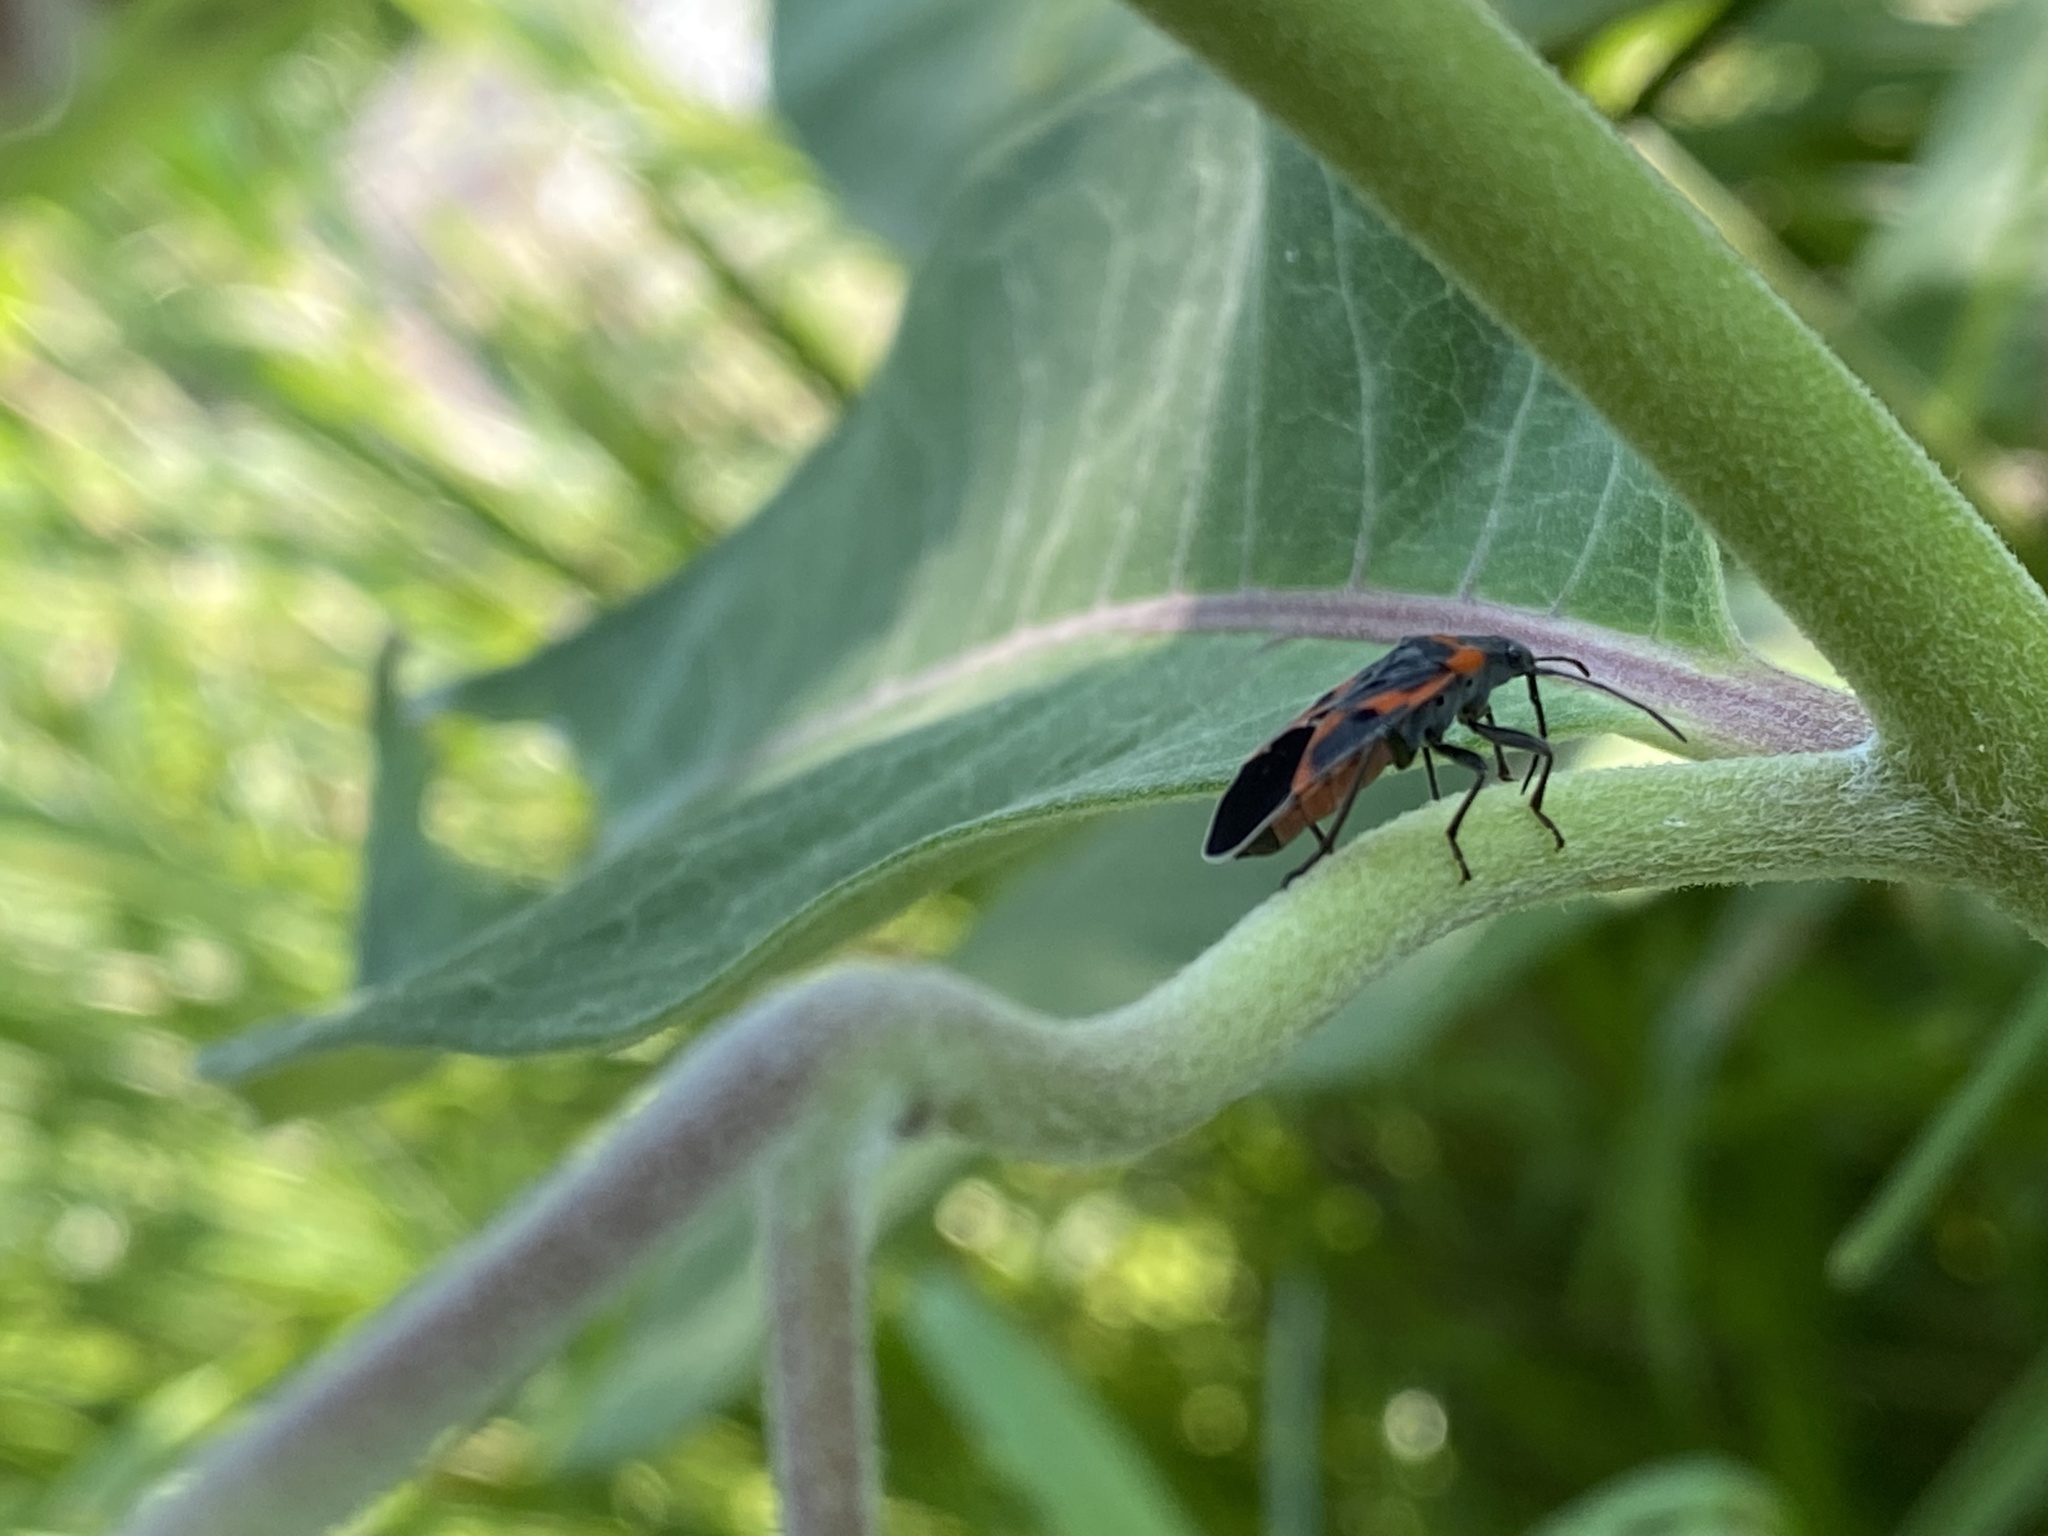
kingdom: Animalia
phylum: Arthropoda
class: Insecta
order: Hemiptera
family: Lygaeidae
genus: Lygaeus
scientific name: Lygaeus kalmii
